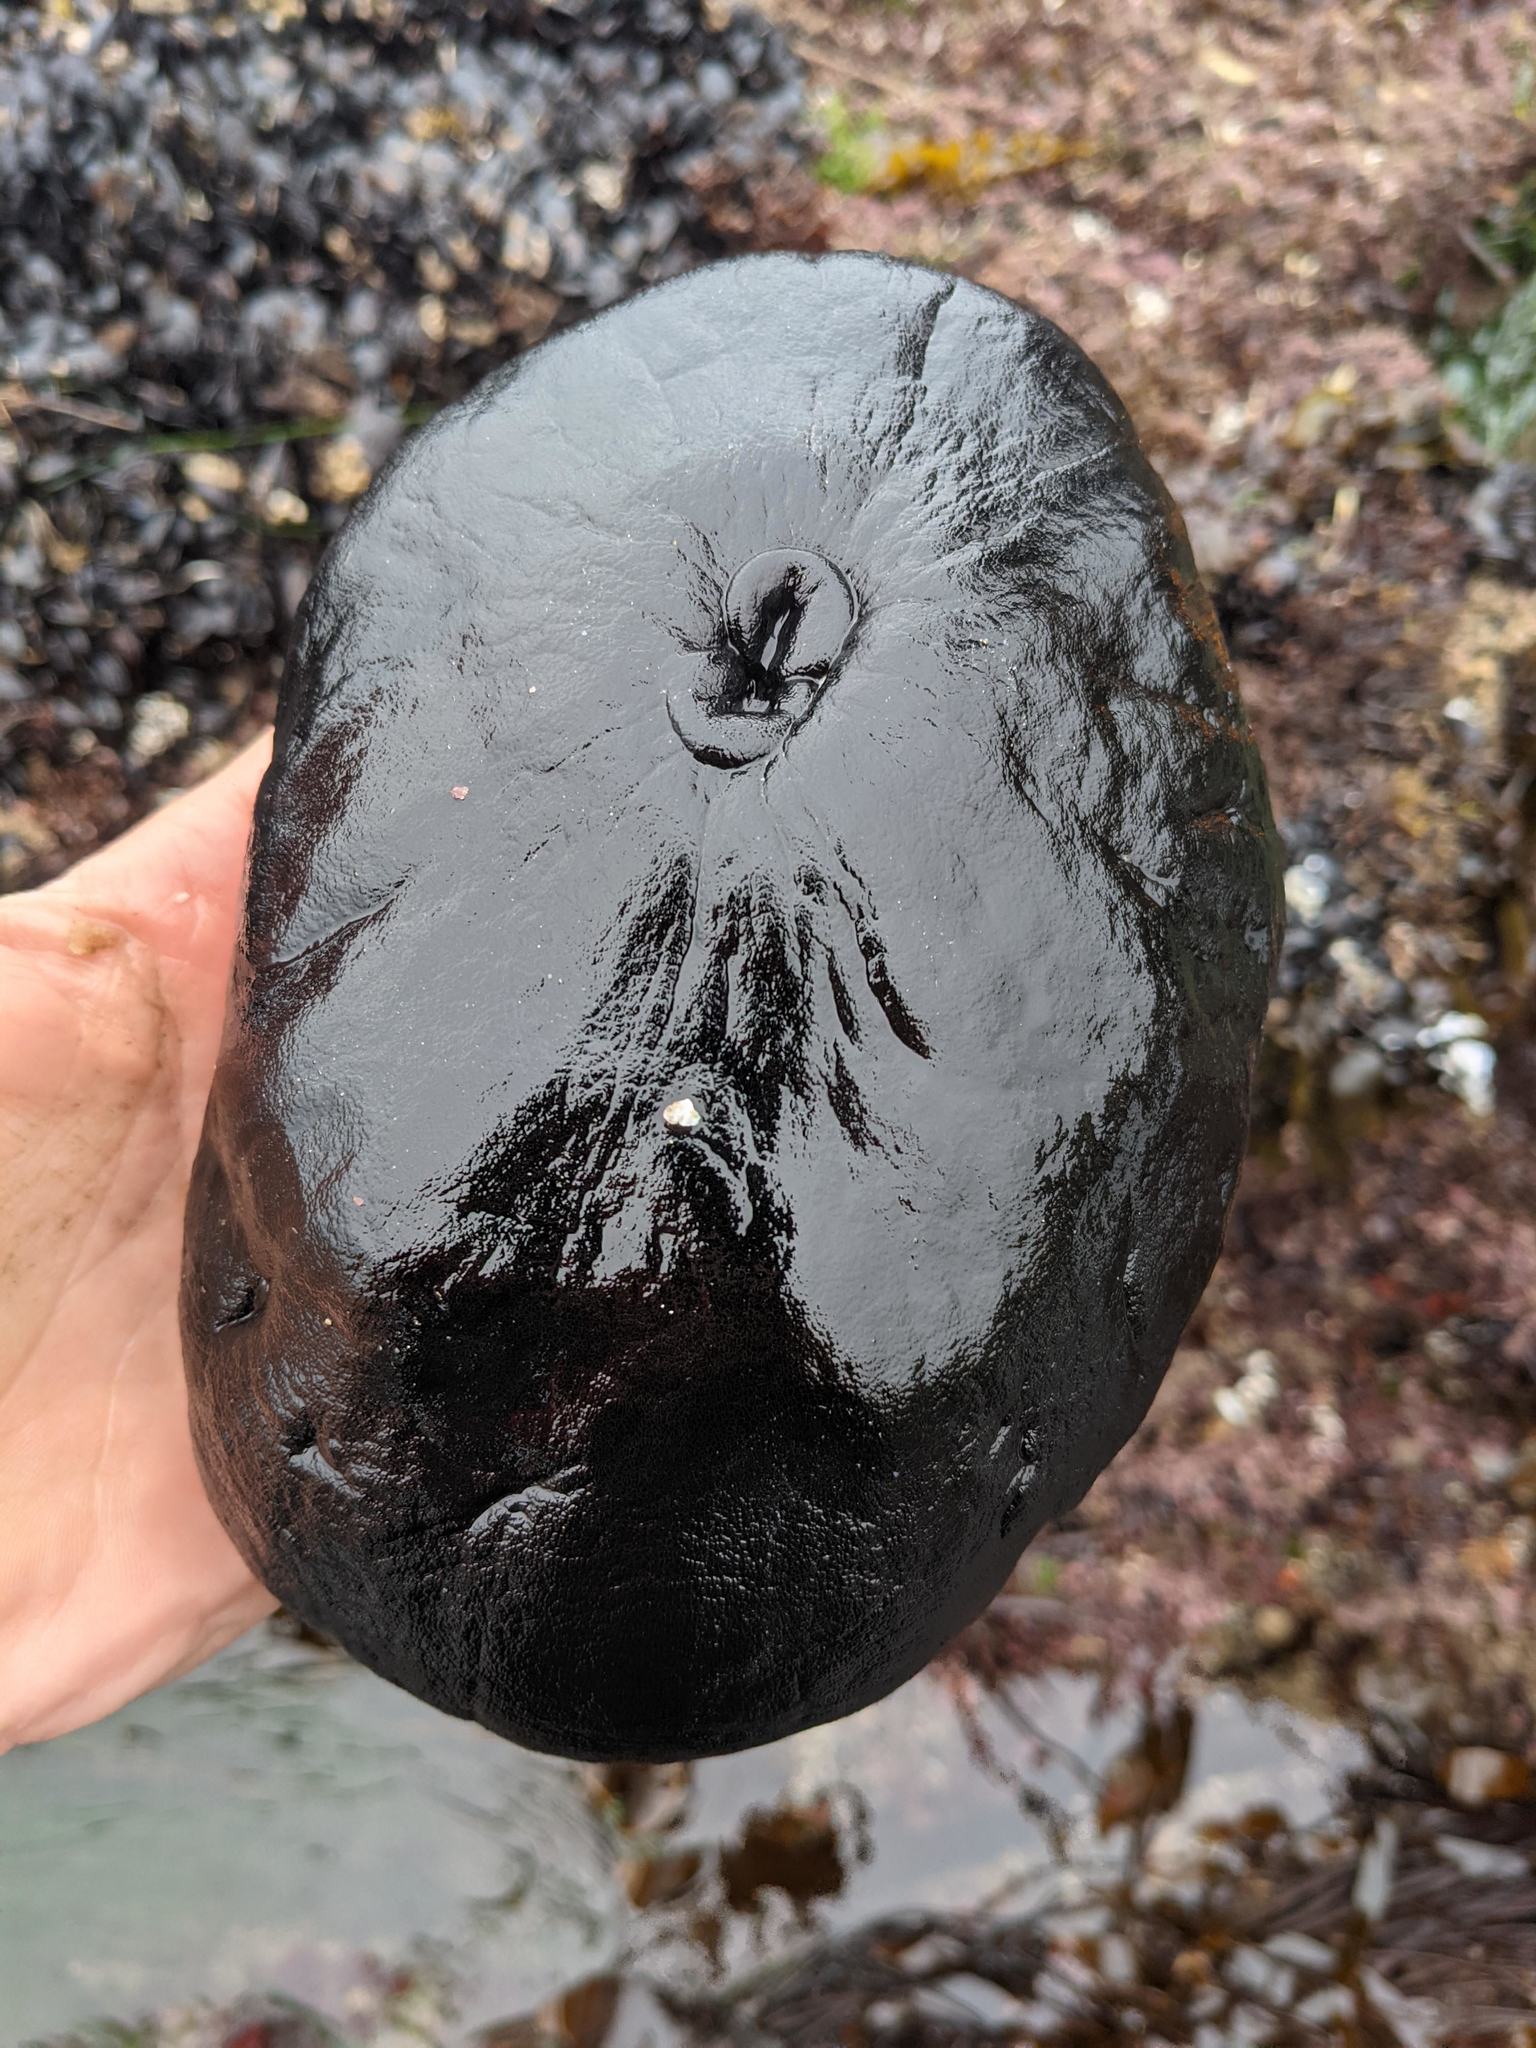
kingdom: Animalia
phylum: Mollusca
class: Gastropoda
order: Lepetellida
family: Fissurellidae
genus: Megathura
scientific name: Megathura crenulata
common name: Giant keyhole limpet
